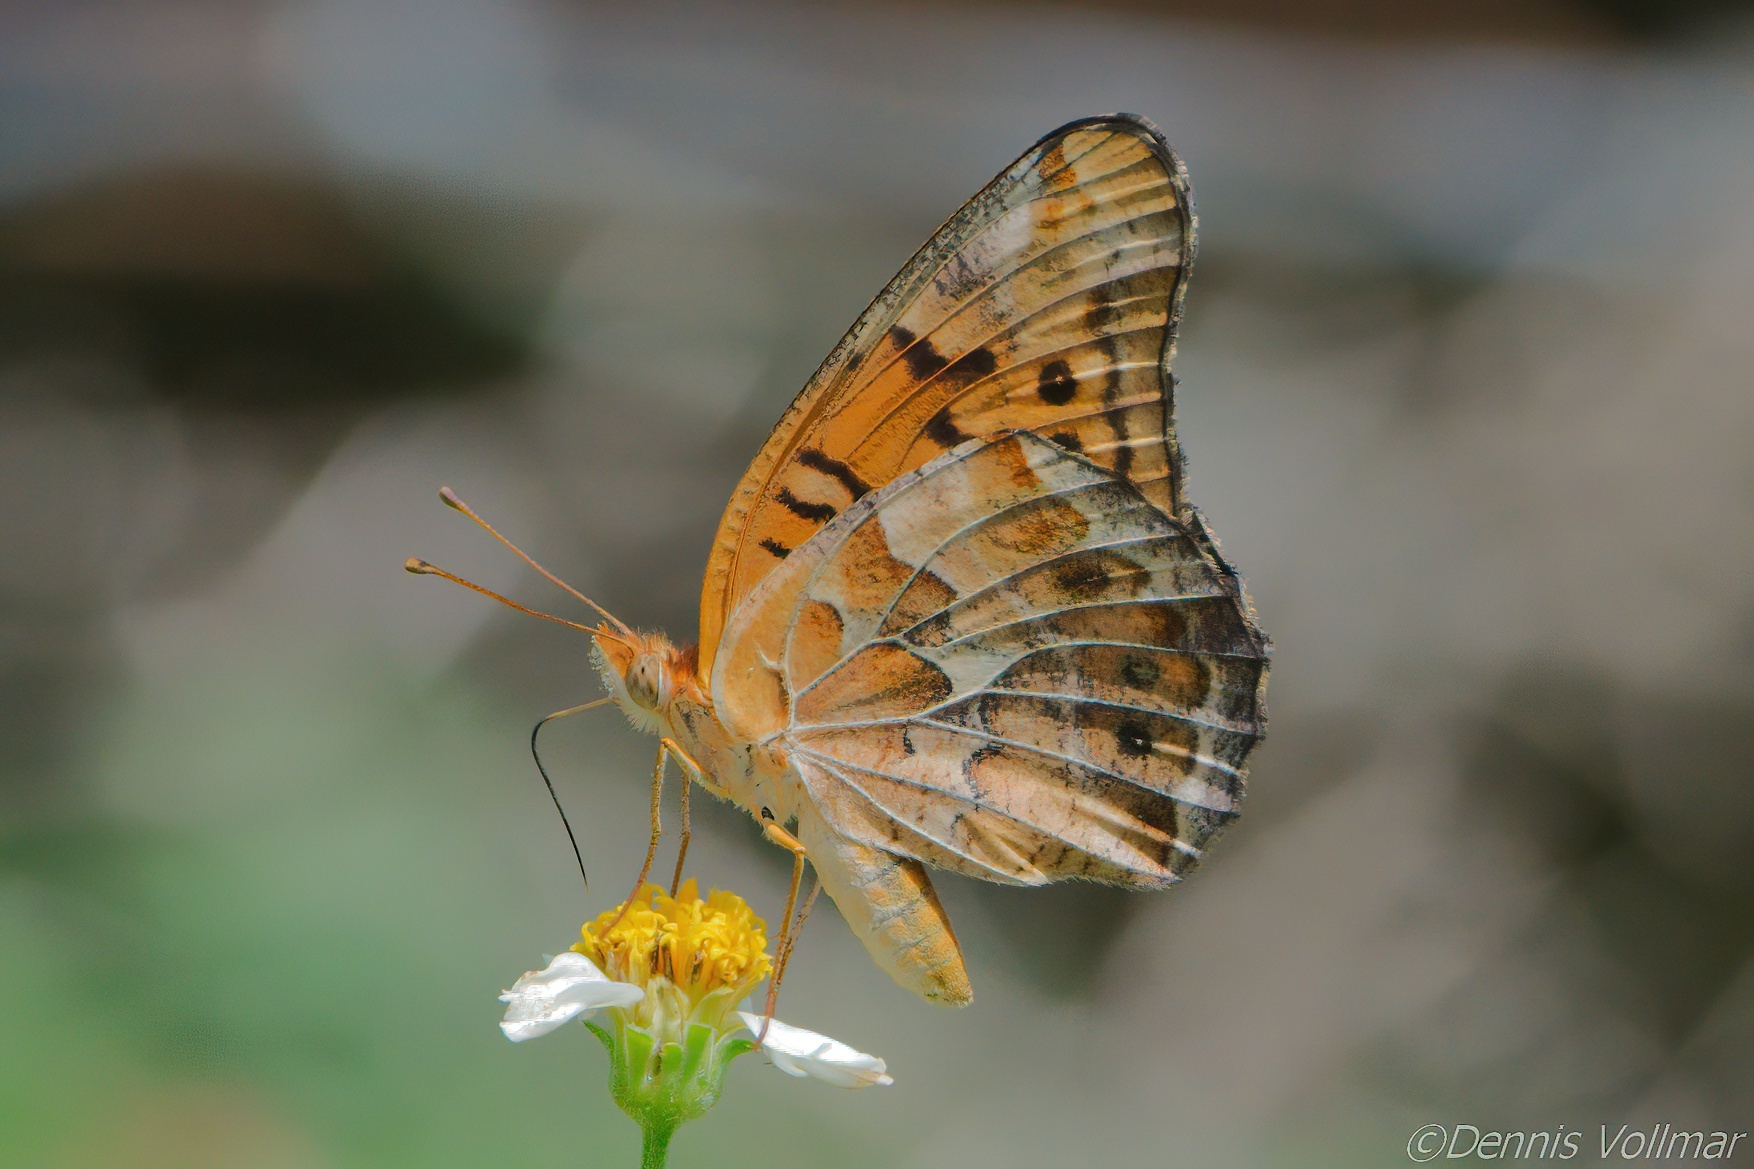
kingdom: Animalia
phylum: Arthropoda
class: Insecta
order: Lepidoptera
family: Nymphalidae
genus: Euptoieta
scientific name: Euptoieta claudia
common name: Variegated fritillary
